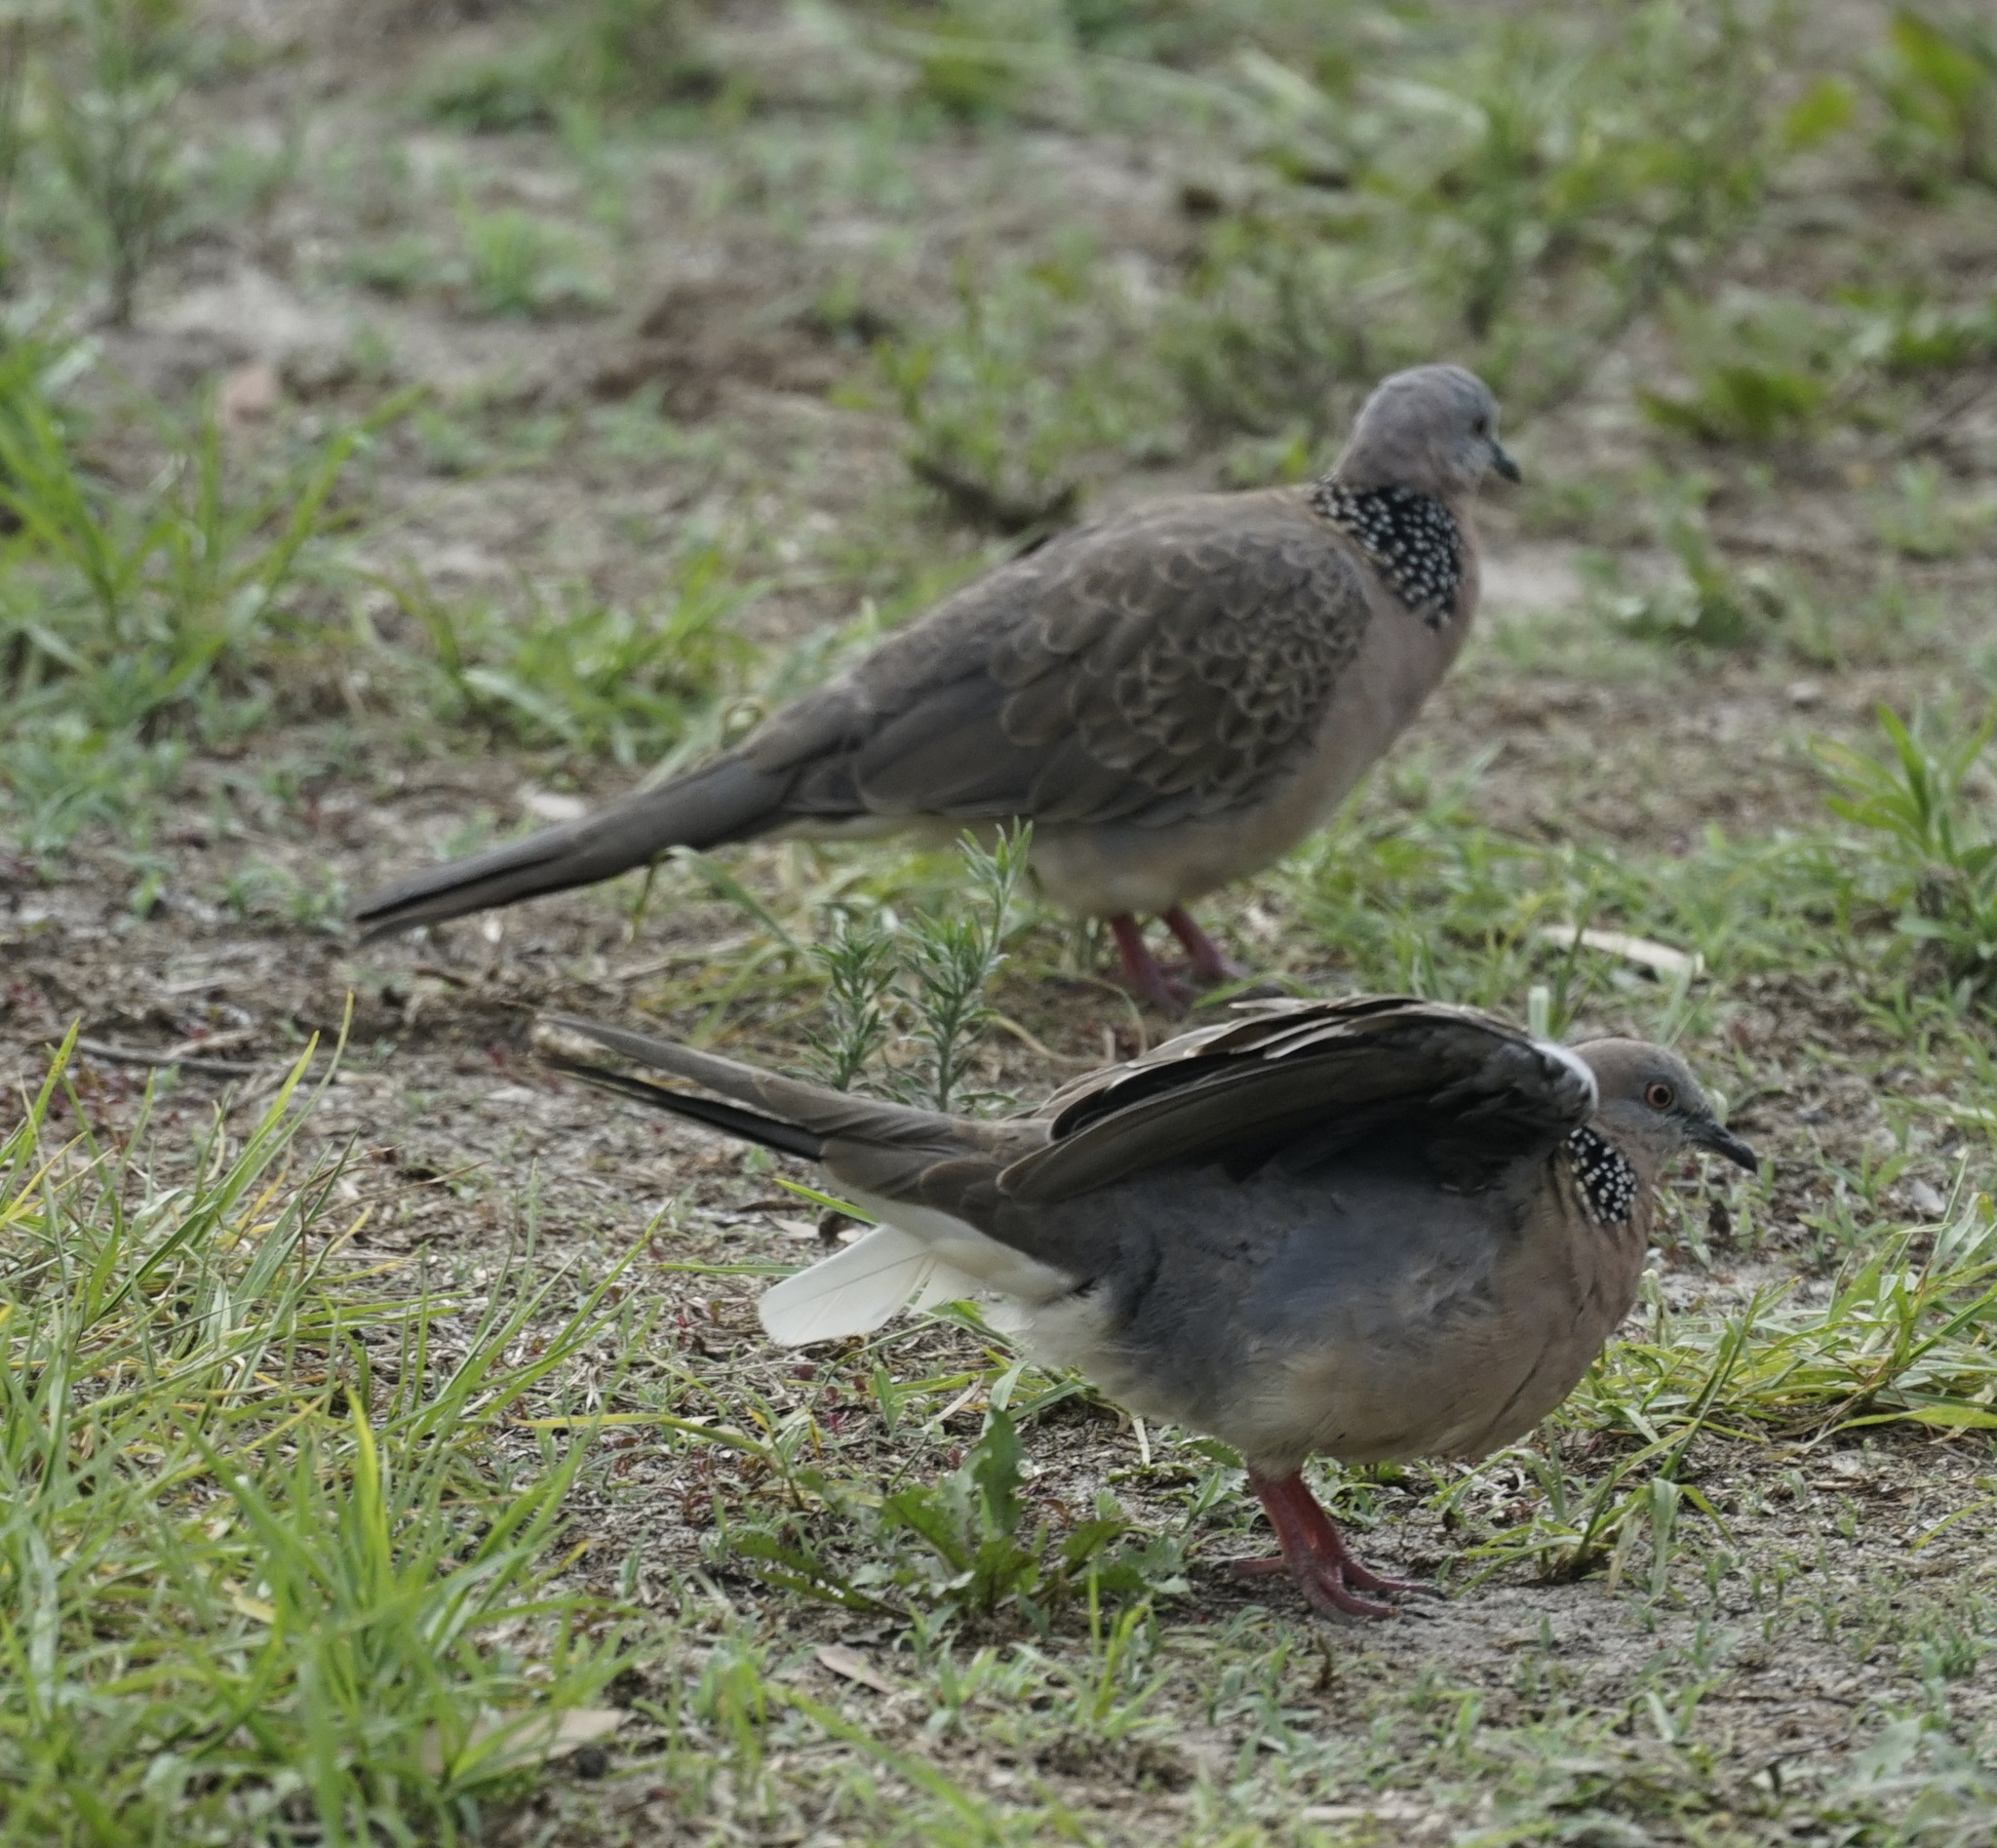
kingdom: Animalia
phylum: Chordata
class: Aves
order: Columbiformes
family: Columbidae
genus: Spilopelia
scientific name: Spilopelia chinensis
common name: Spotted dove
